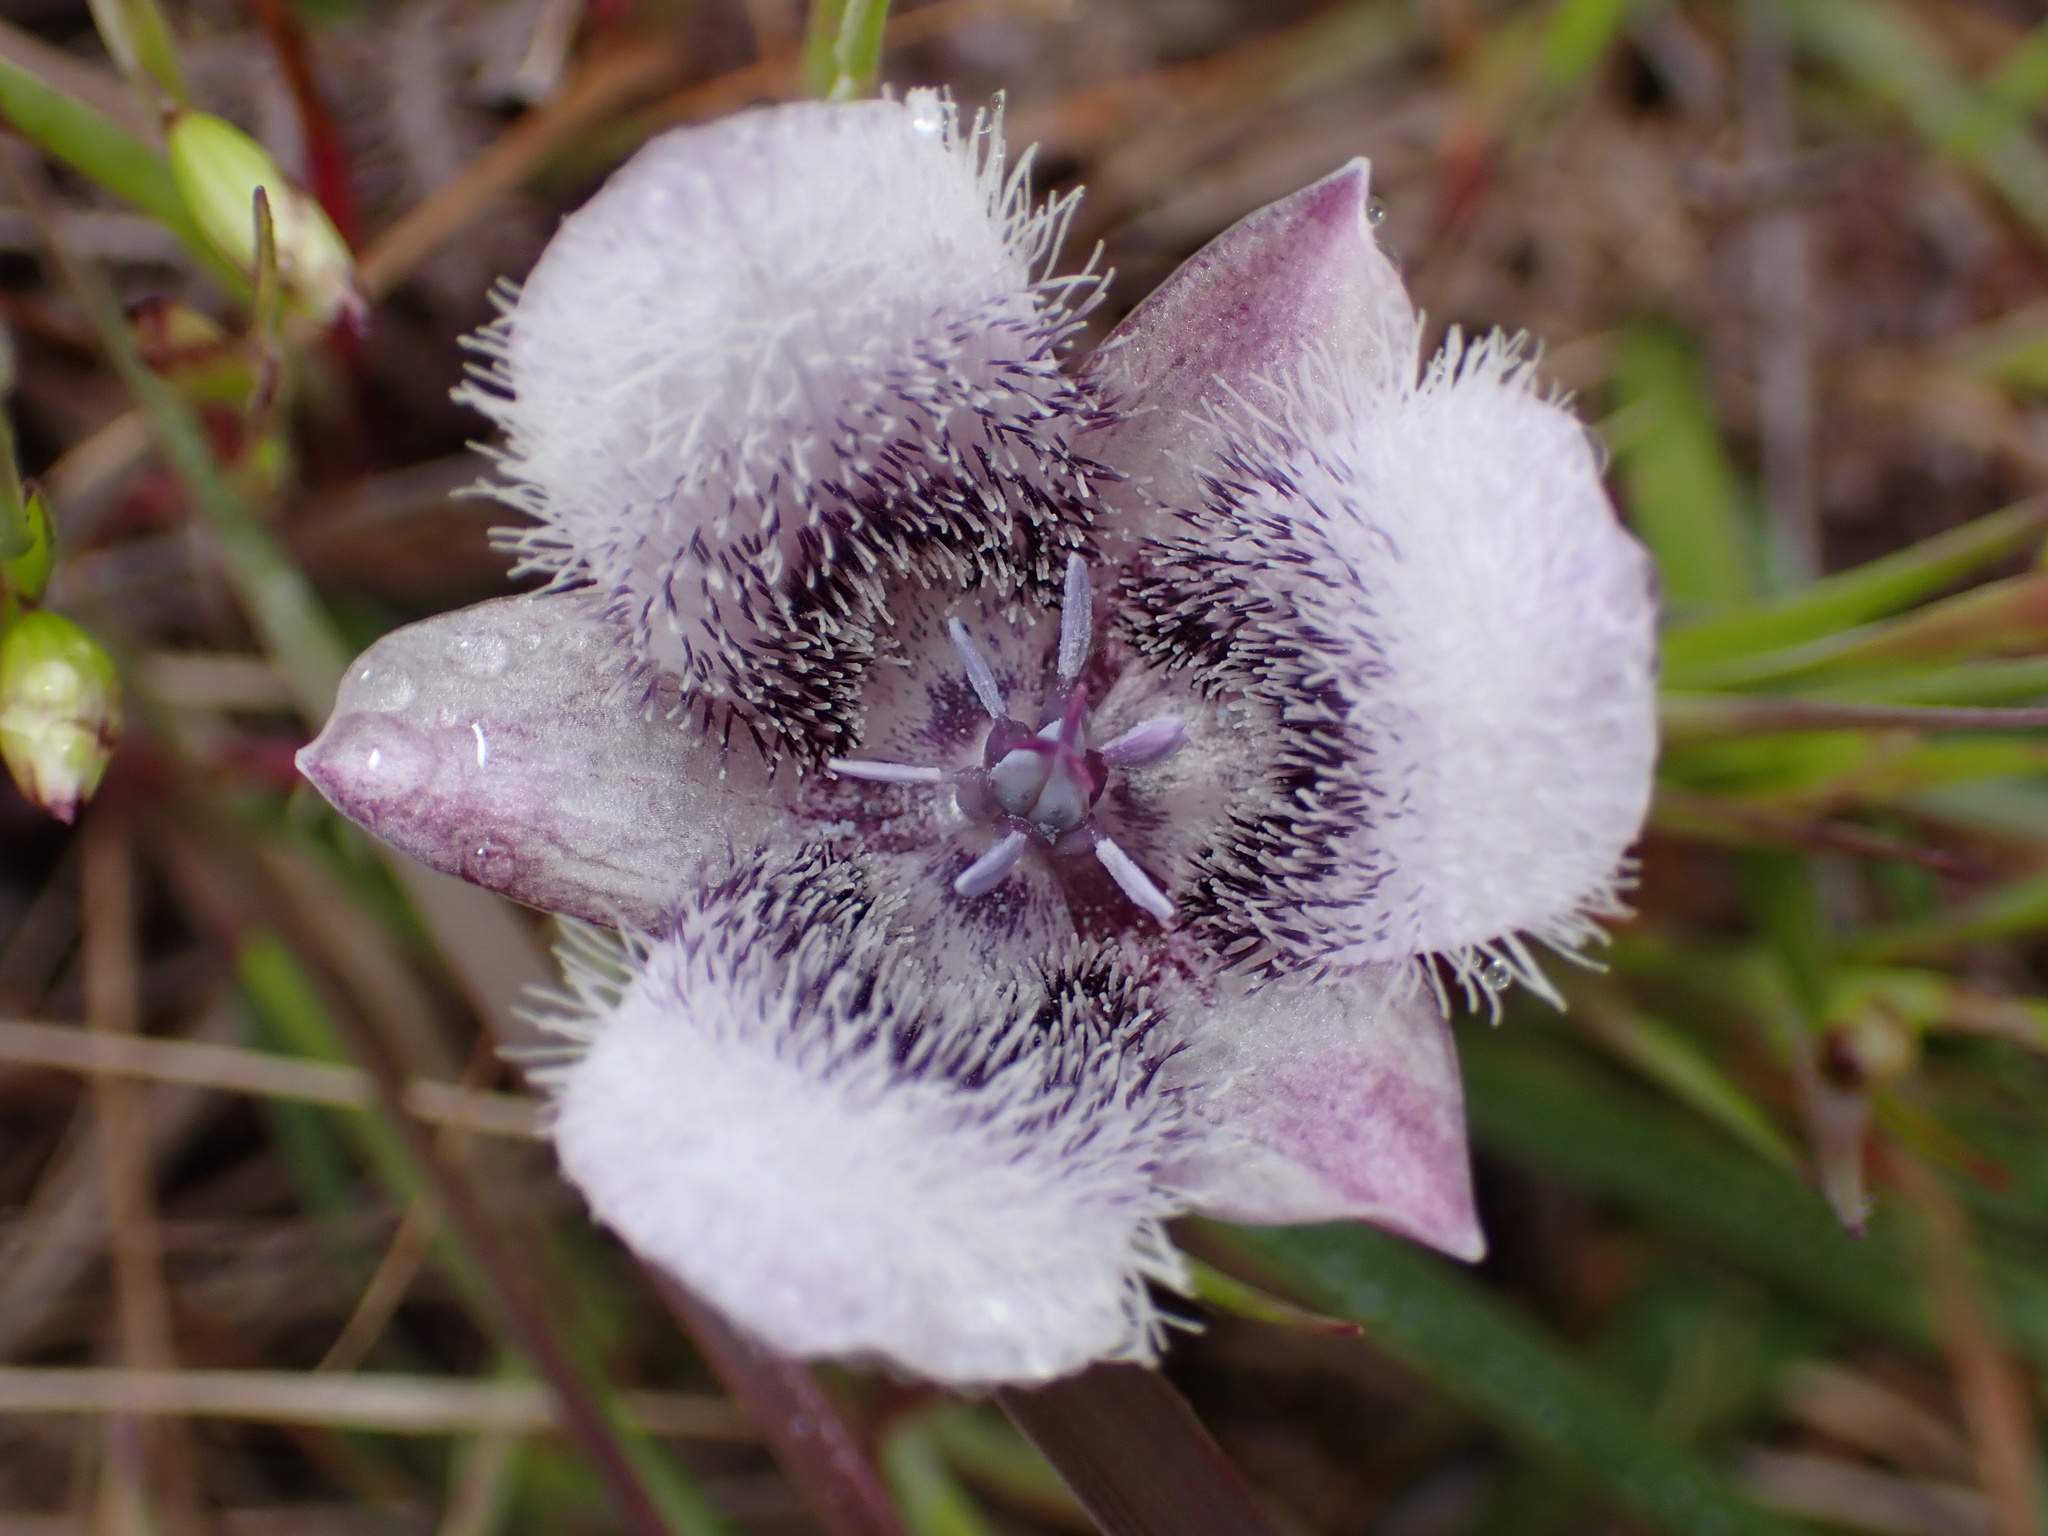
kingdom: Plantae
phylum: Tracheophyta
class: Liliopsida
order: Liliales
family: Liliaceae
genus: Calochortus
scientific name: Calochortus tolmiei
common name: Pussy-ears
